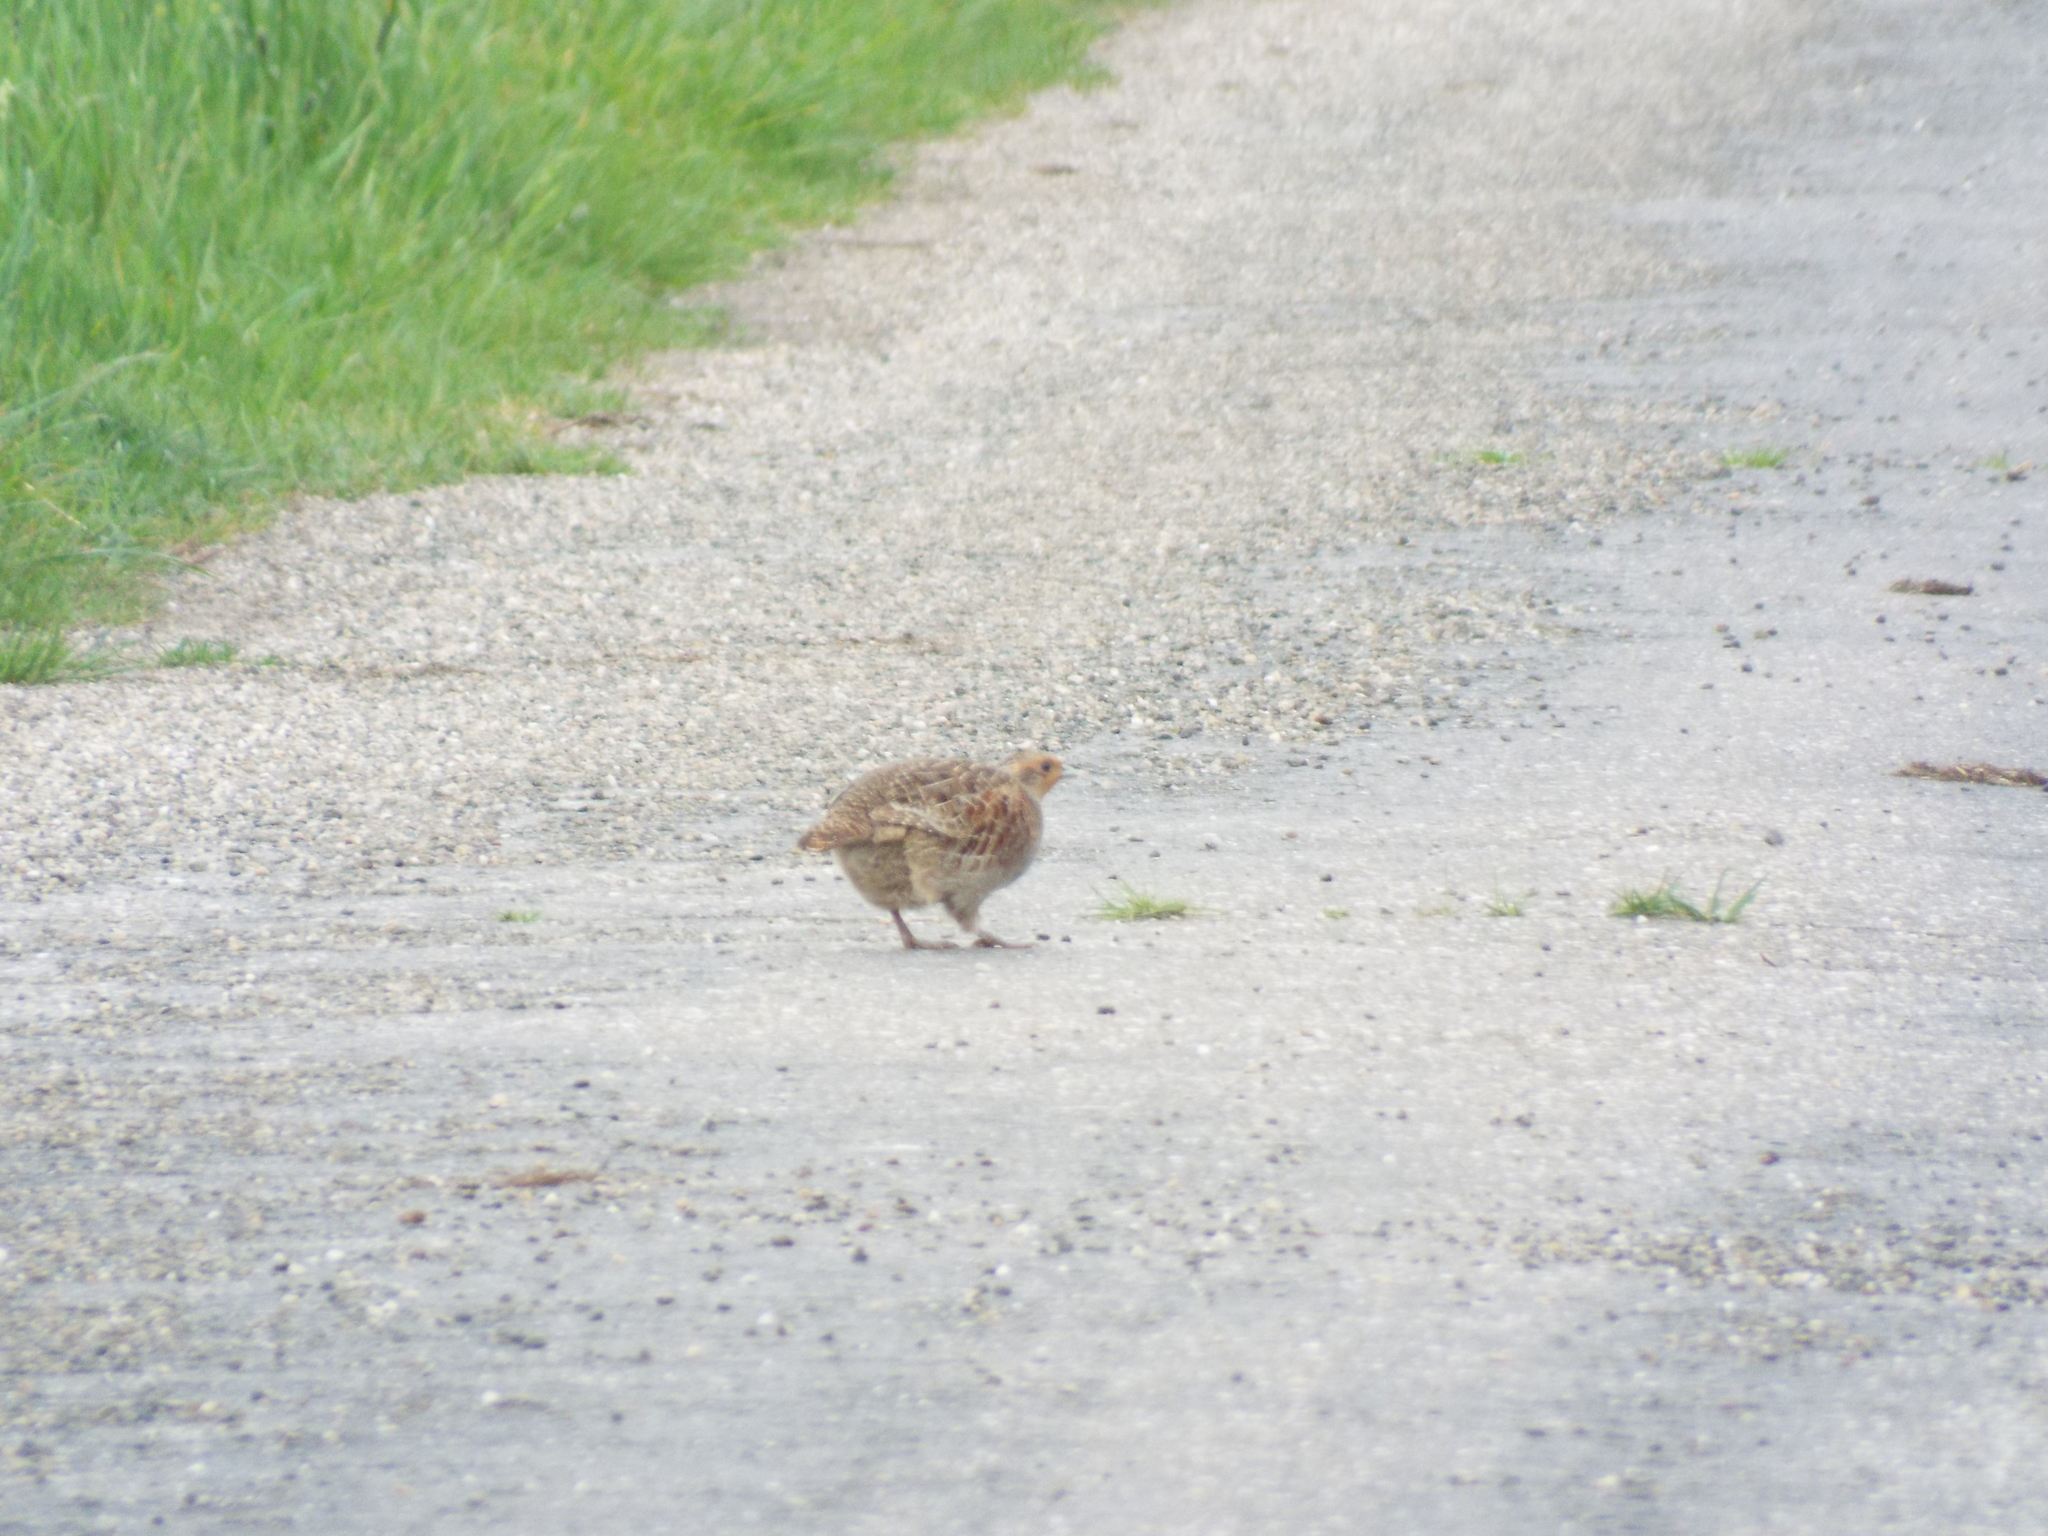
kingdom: Animalia
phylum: Chordata
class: Aves
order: Galliformes
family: Phasianidae
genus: Perdix
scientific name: Perdix perdix
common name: Grey partridge
